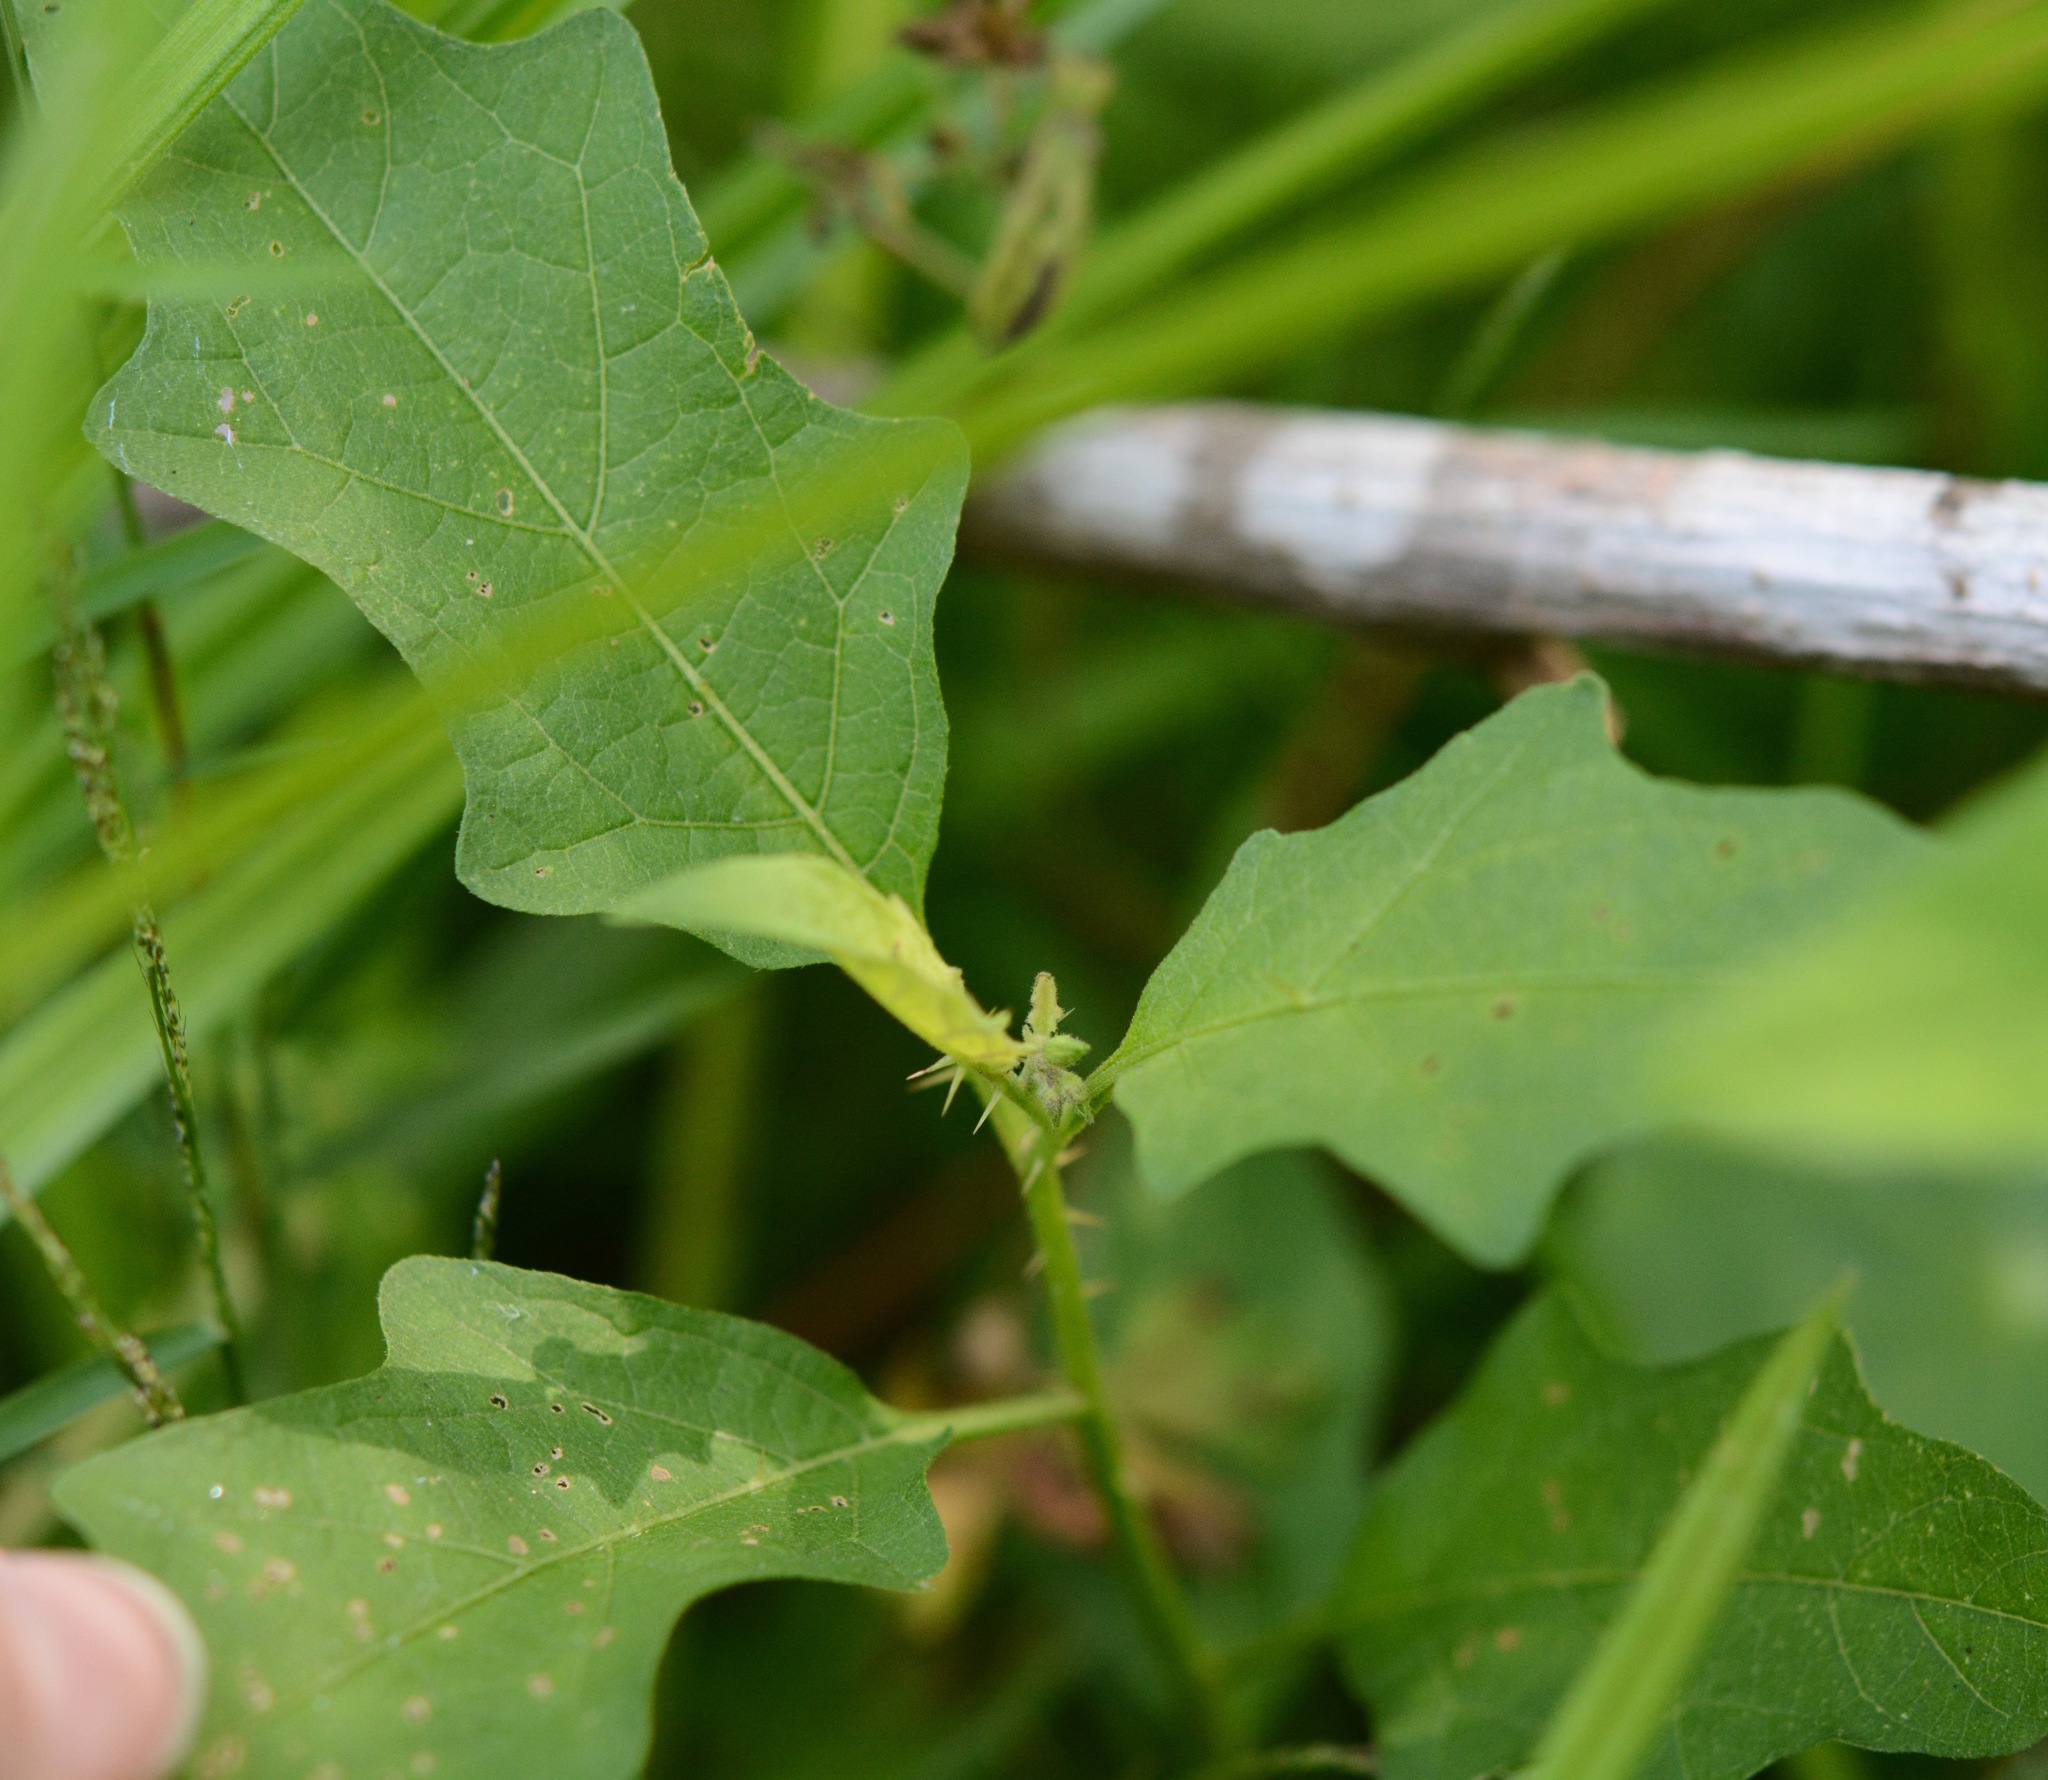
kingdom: Plantae
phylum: Tracheophyta
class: Magnoliopsida
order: Solanales
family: Solanaceae
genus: Solanum
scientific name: Solanum carolinense
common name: Horse-nettle
